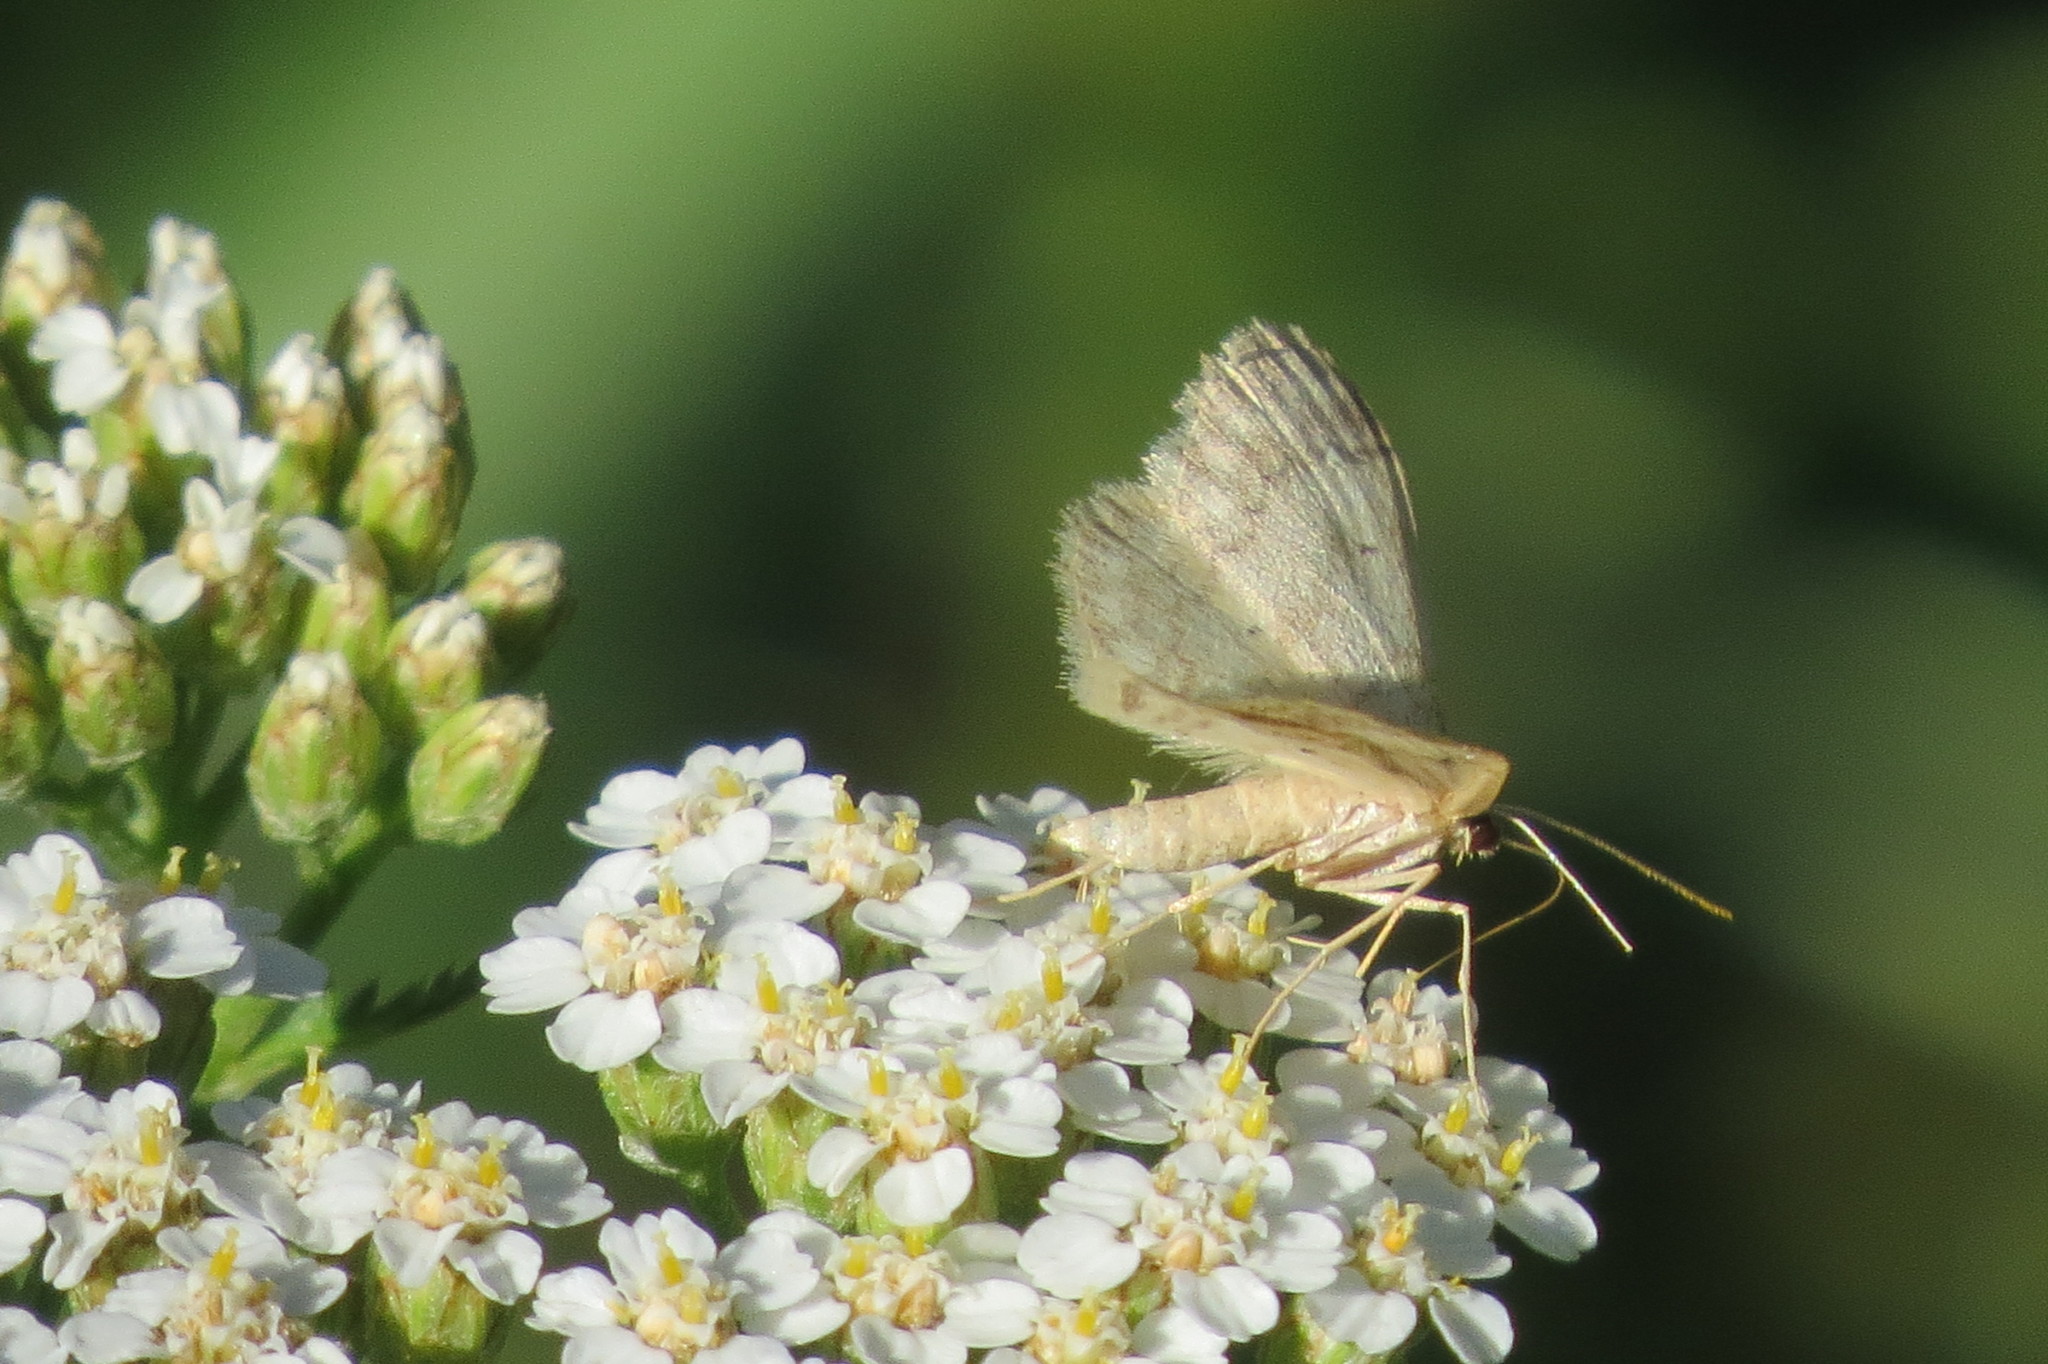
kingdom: Animalia
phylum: Arthropoda
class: Insecta
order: Lepidoptera
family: Geometridae
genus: Idaea
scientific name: Idaea biselata
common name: Small fan-footed wave
